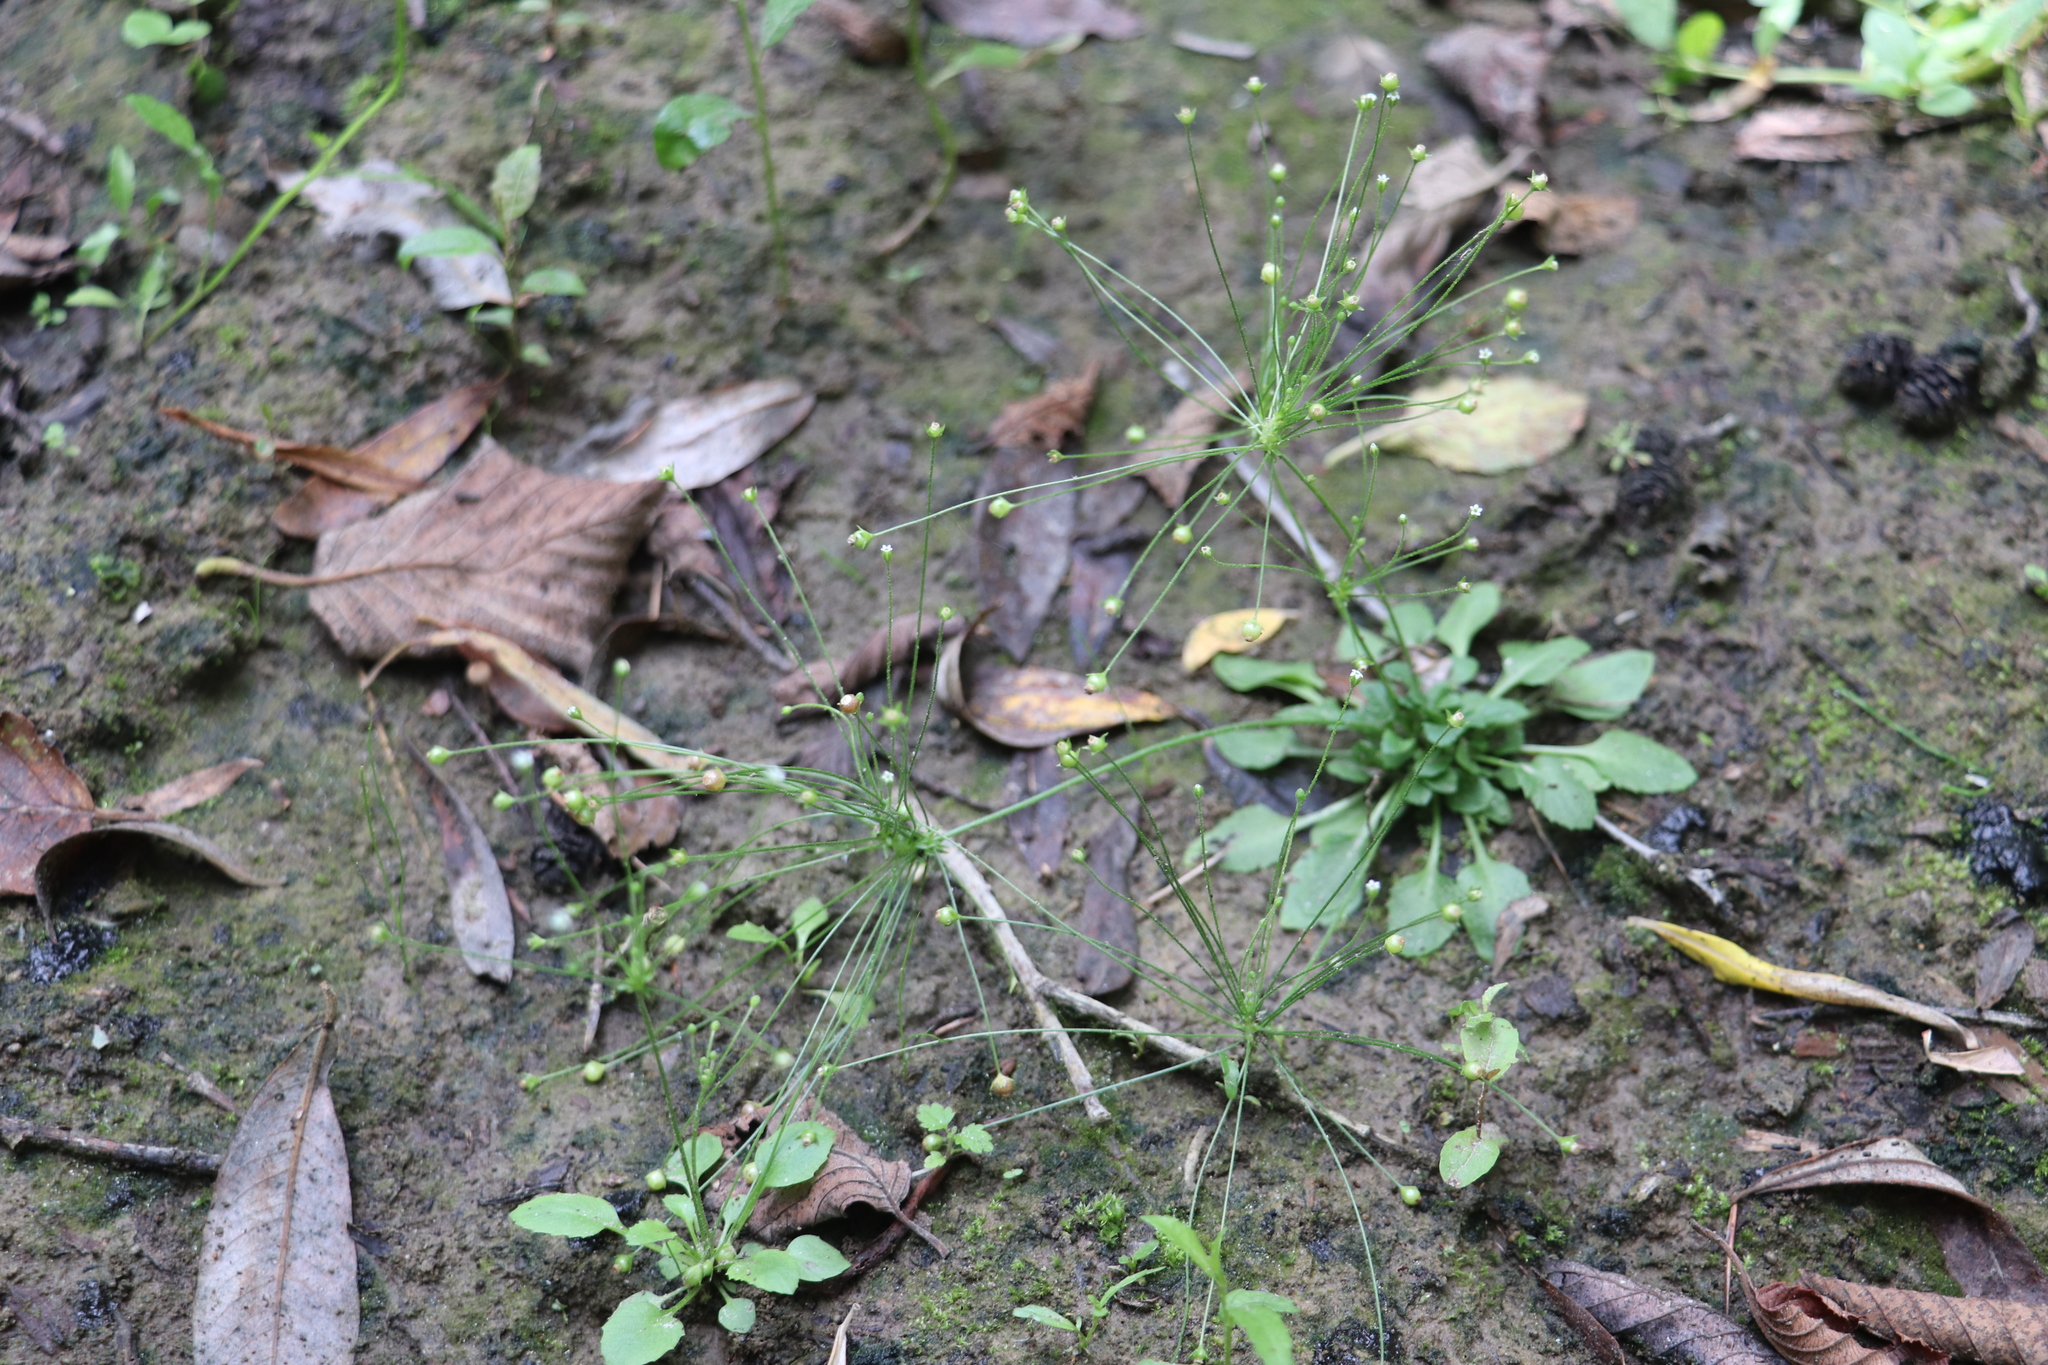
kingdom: Plantae
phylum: Tracheophyta
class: Magnoliopsida
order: Ericales
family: Primulaceae
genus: Androsace
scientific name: Androsace filiformis
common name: Filiform rock jasmine
